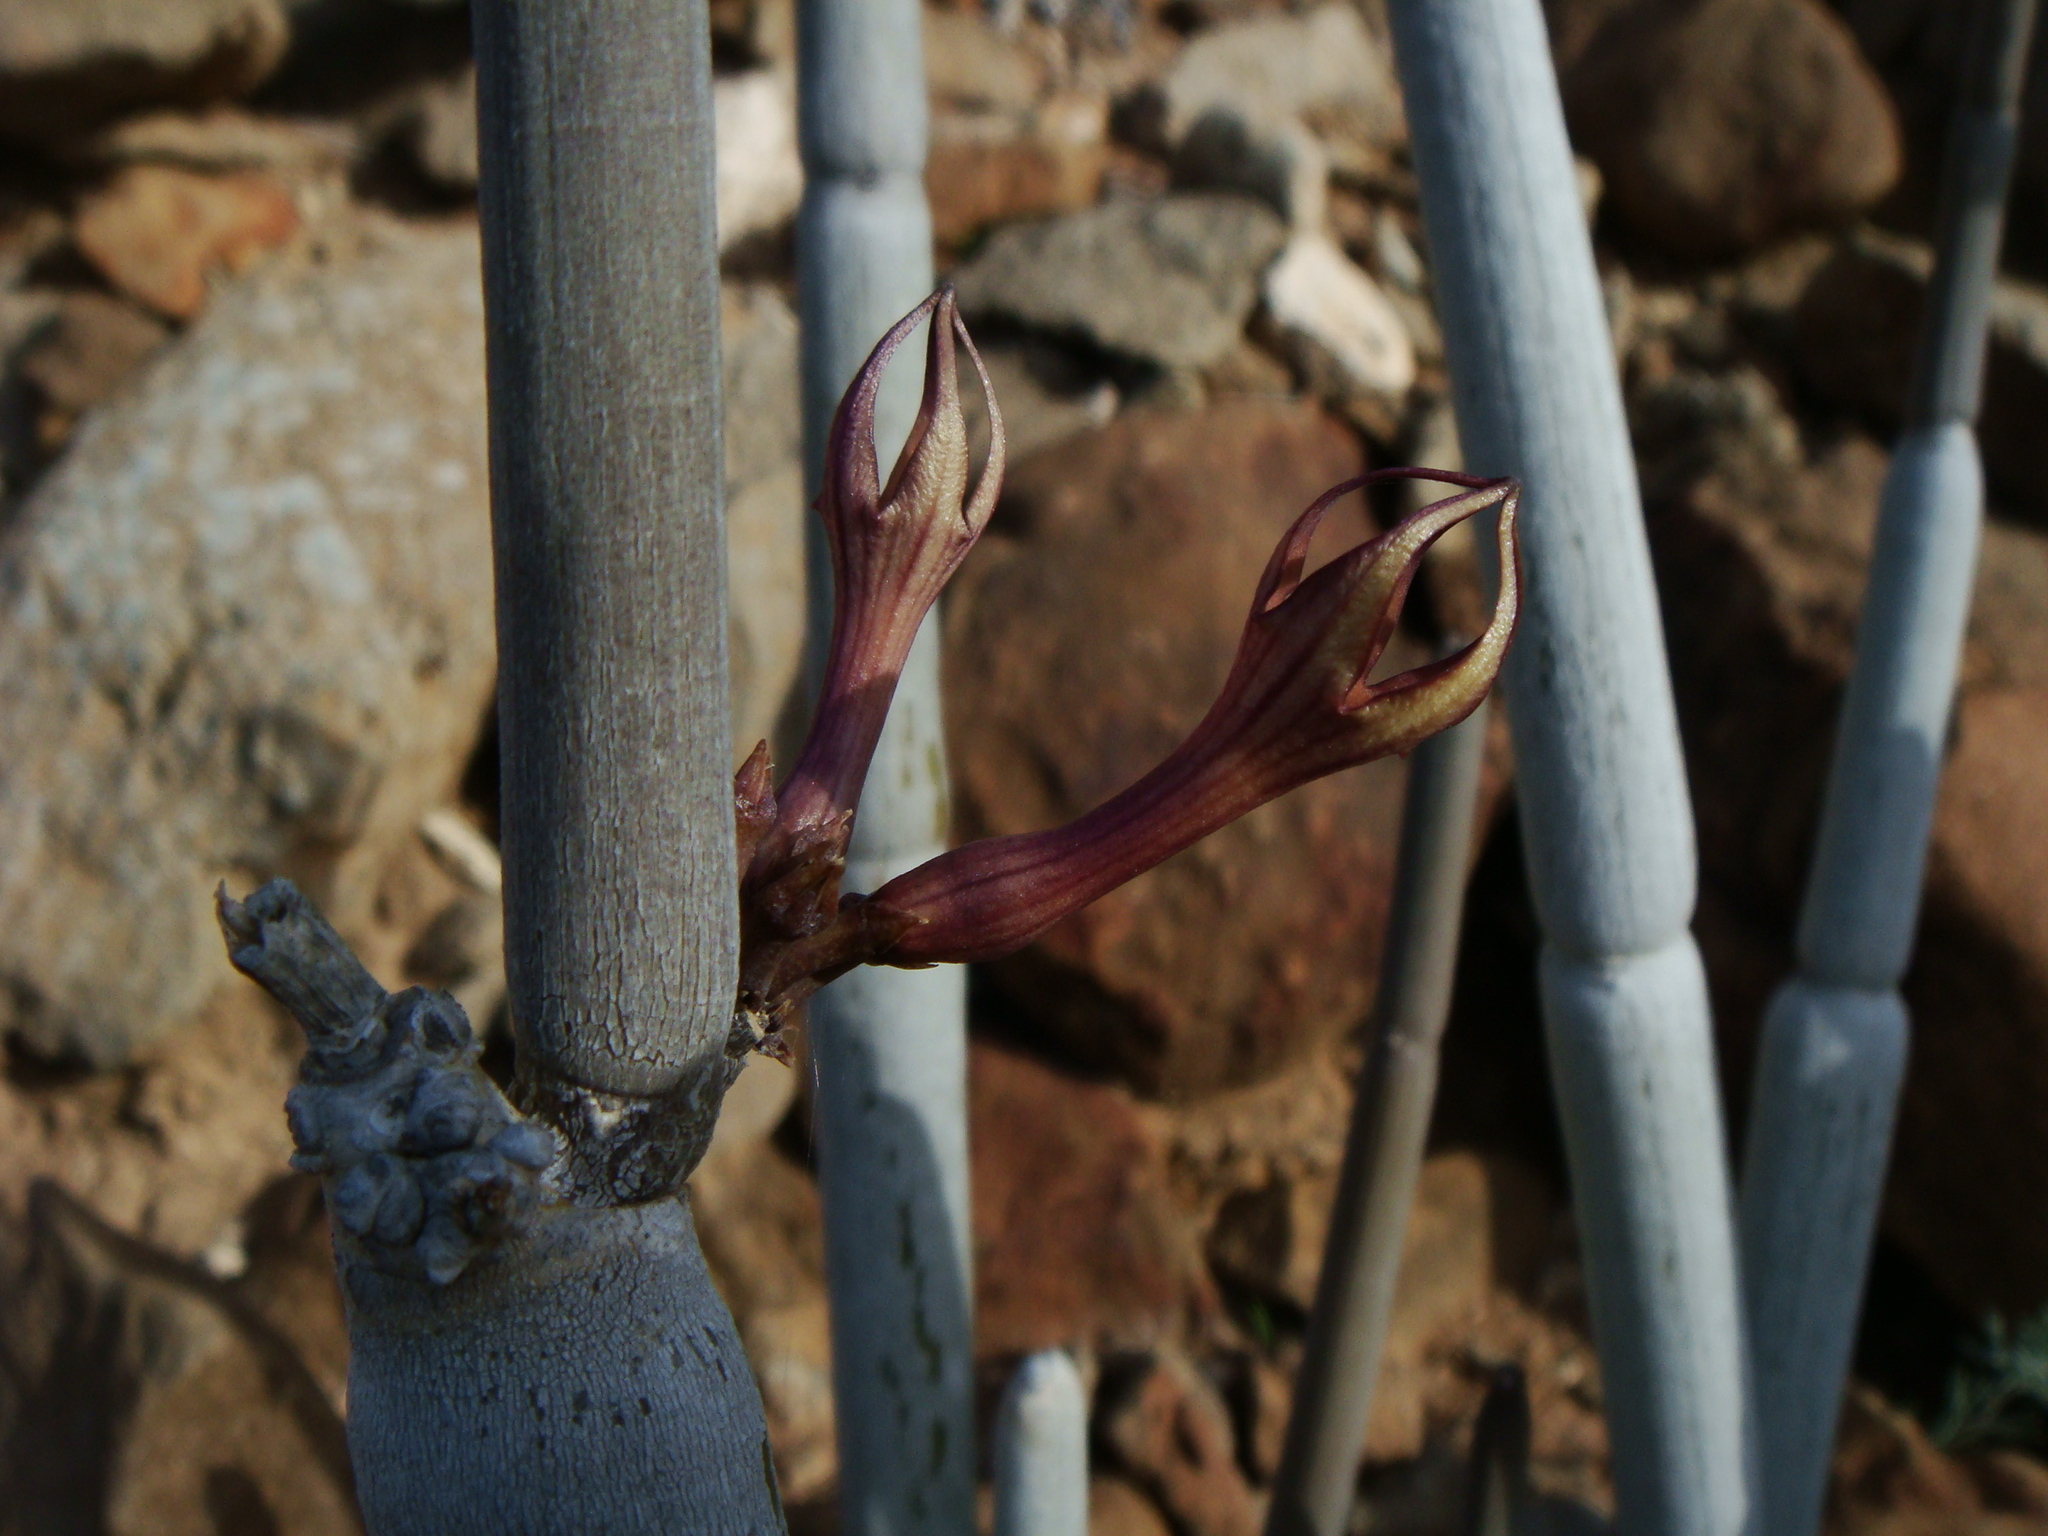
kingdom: Plantae
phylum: Tracheophyta
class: Magnoliopsida
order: Gentianales
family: Apocynaceae
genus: Ceropegia
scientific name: Ceropegia fusca
